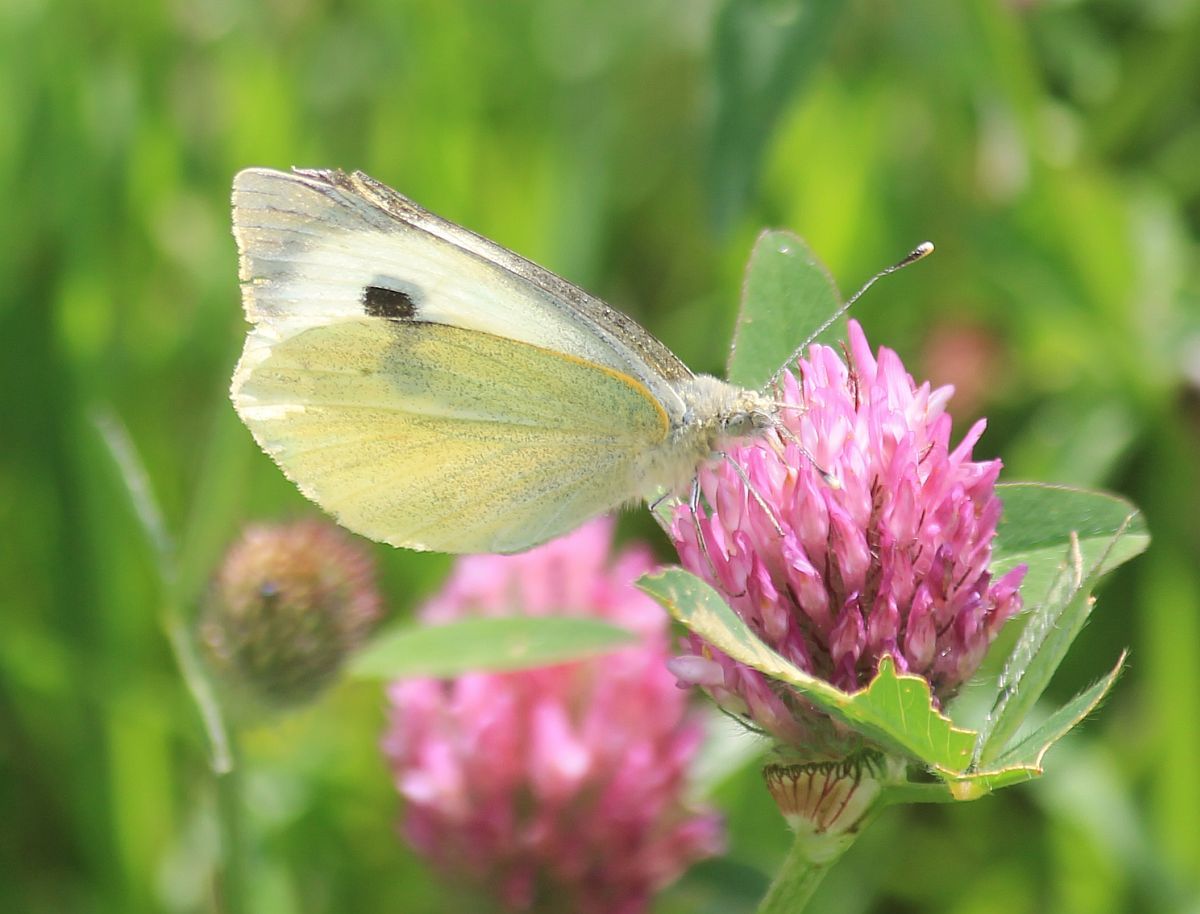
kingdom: Animalia
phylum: Arthropoda
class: Insecta
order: Lepidoptera
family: Pieridae
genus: Pieris
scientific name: Pieris brassicae
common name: Large white
